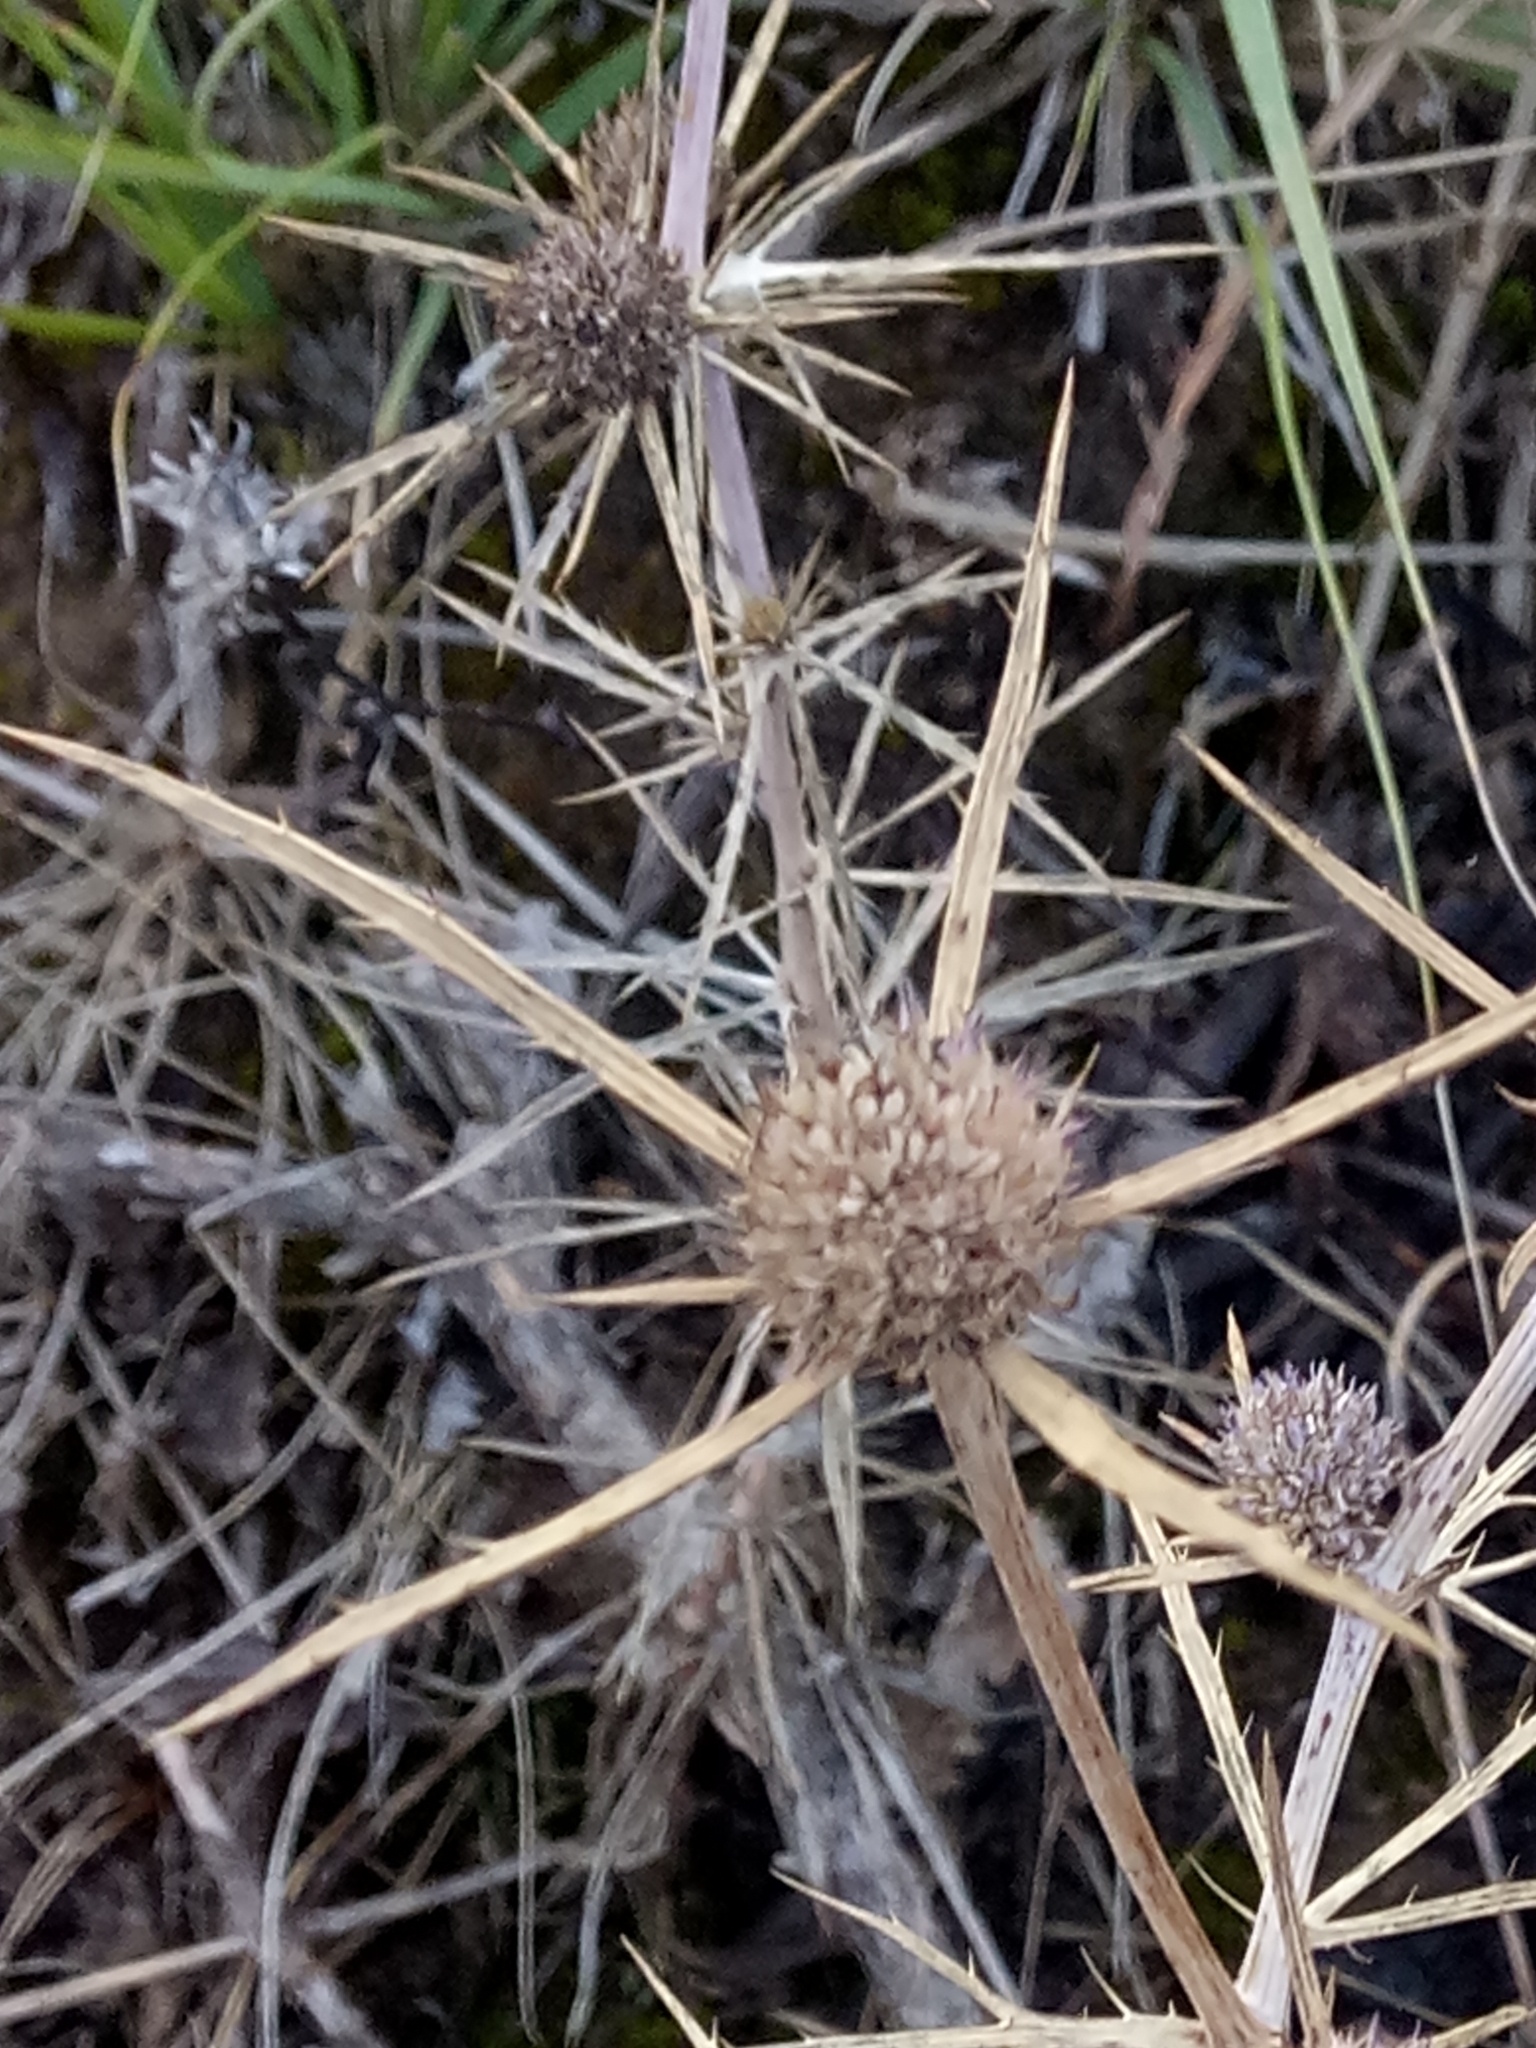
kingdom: Plantae
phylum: Tracheophyta
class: Magnoliopsida
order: Apiales
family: Apiaceae
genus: Eryngium
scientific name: Eryngium tricuspidatum
